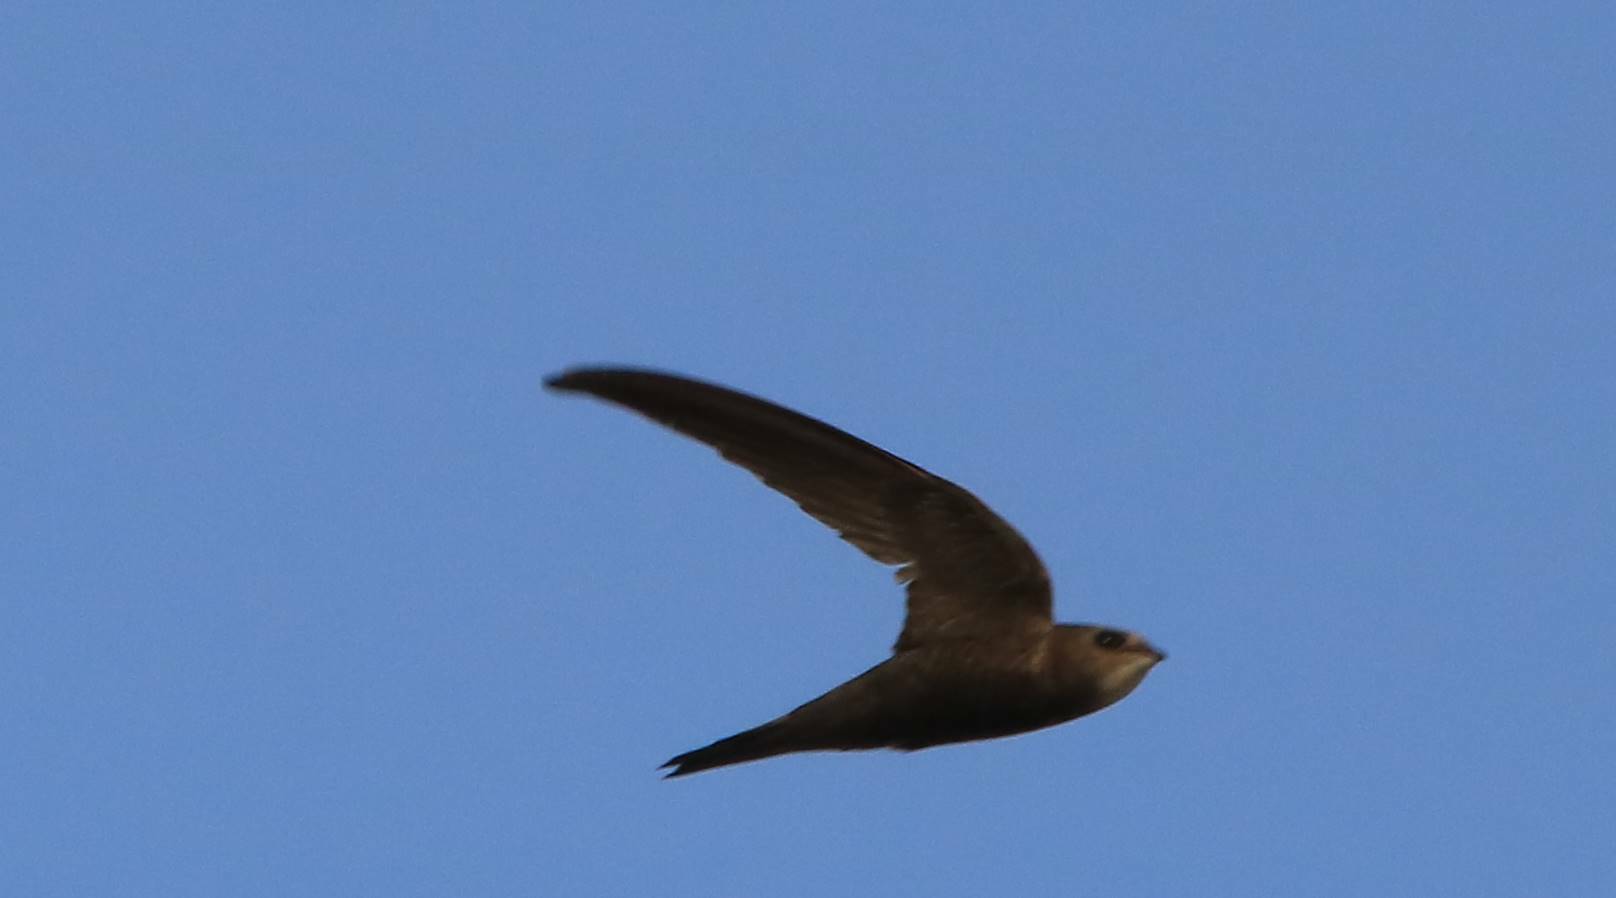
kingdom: Animalia
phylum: Chordata
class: Aves
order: Apodiformes
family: Apodidae
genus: Apus
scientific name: Apus pallidus
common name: Pallid swift
